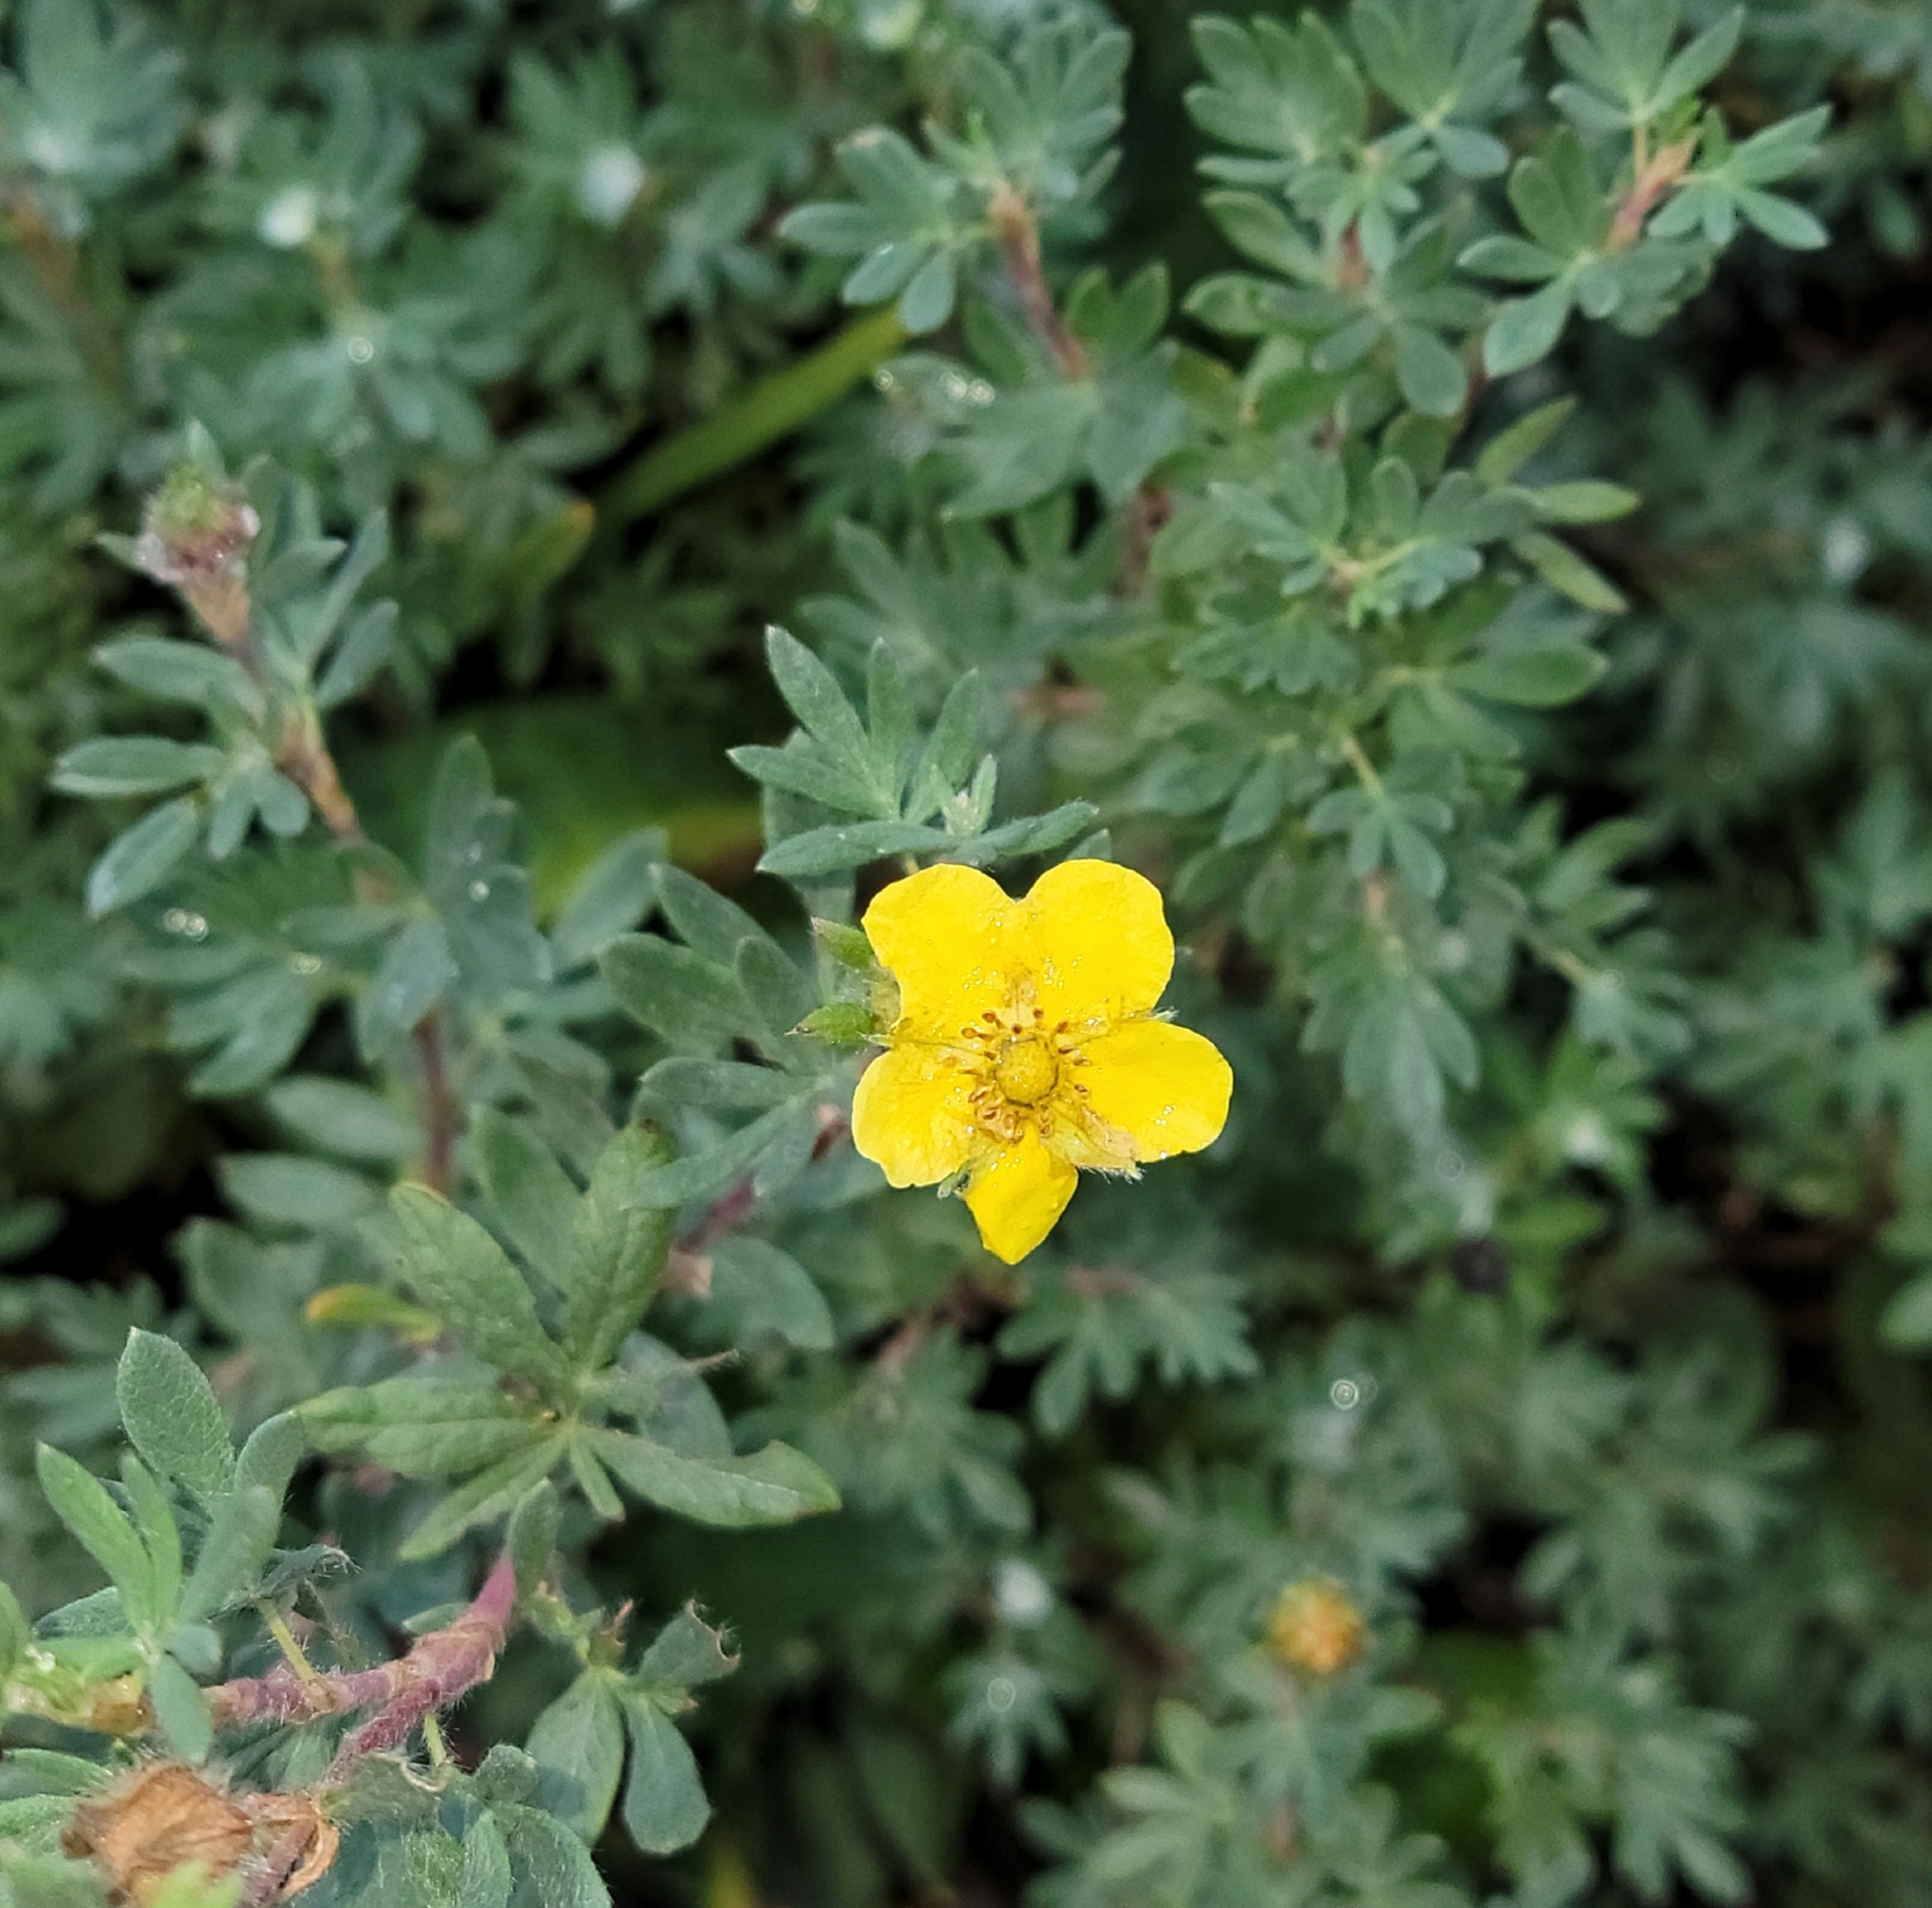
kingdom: Plantae
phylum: Tracheophyta
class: Magnoliopsida
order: Rosales
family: Rosaceae
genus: Dasiphora
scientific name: Dasiphora fruticosa
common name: Shrubby cinquefoil
